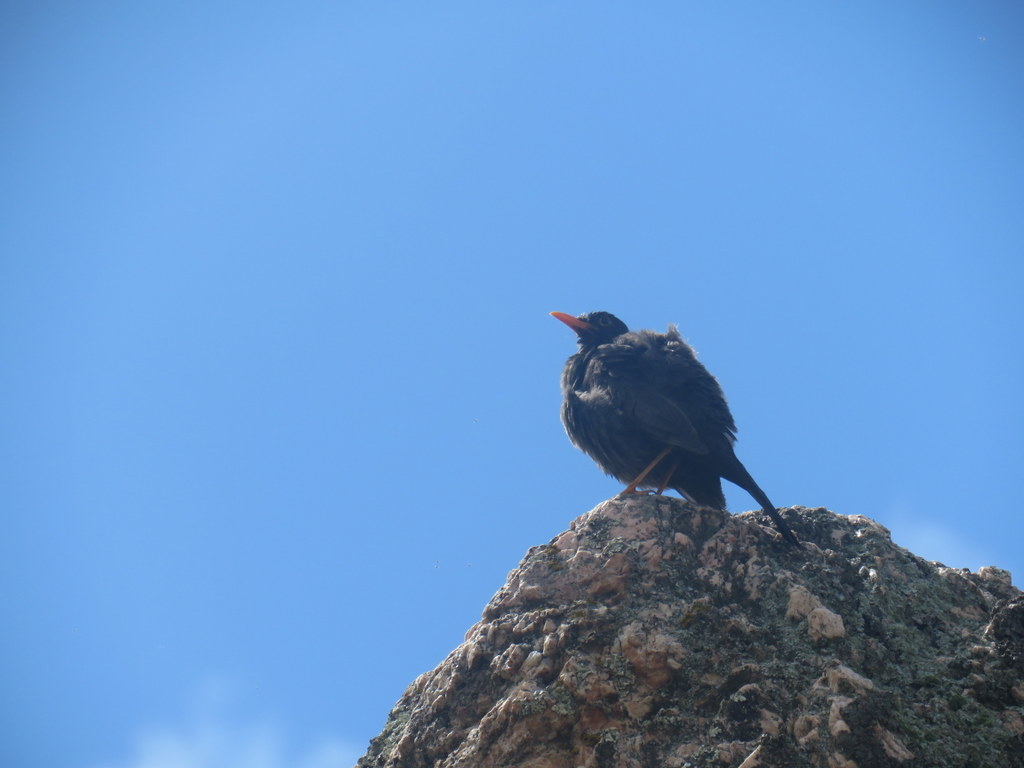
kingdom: Animalia
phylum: Chordata
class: Aves
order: Passeriformes
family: Turdidae
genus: Turdus
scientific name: Turdus chiguanco
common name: Chiguanco thrush
